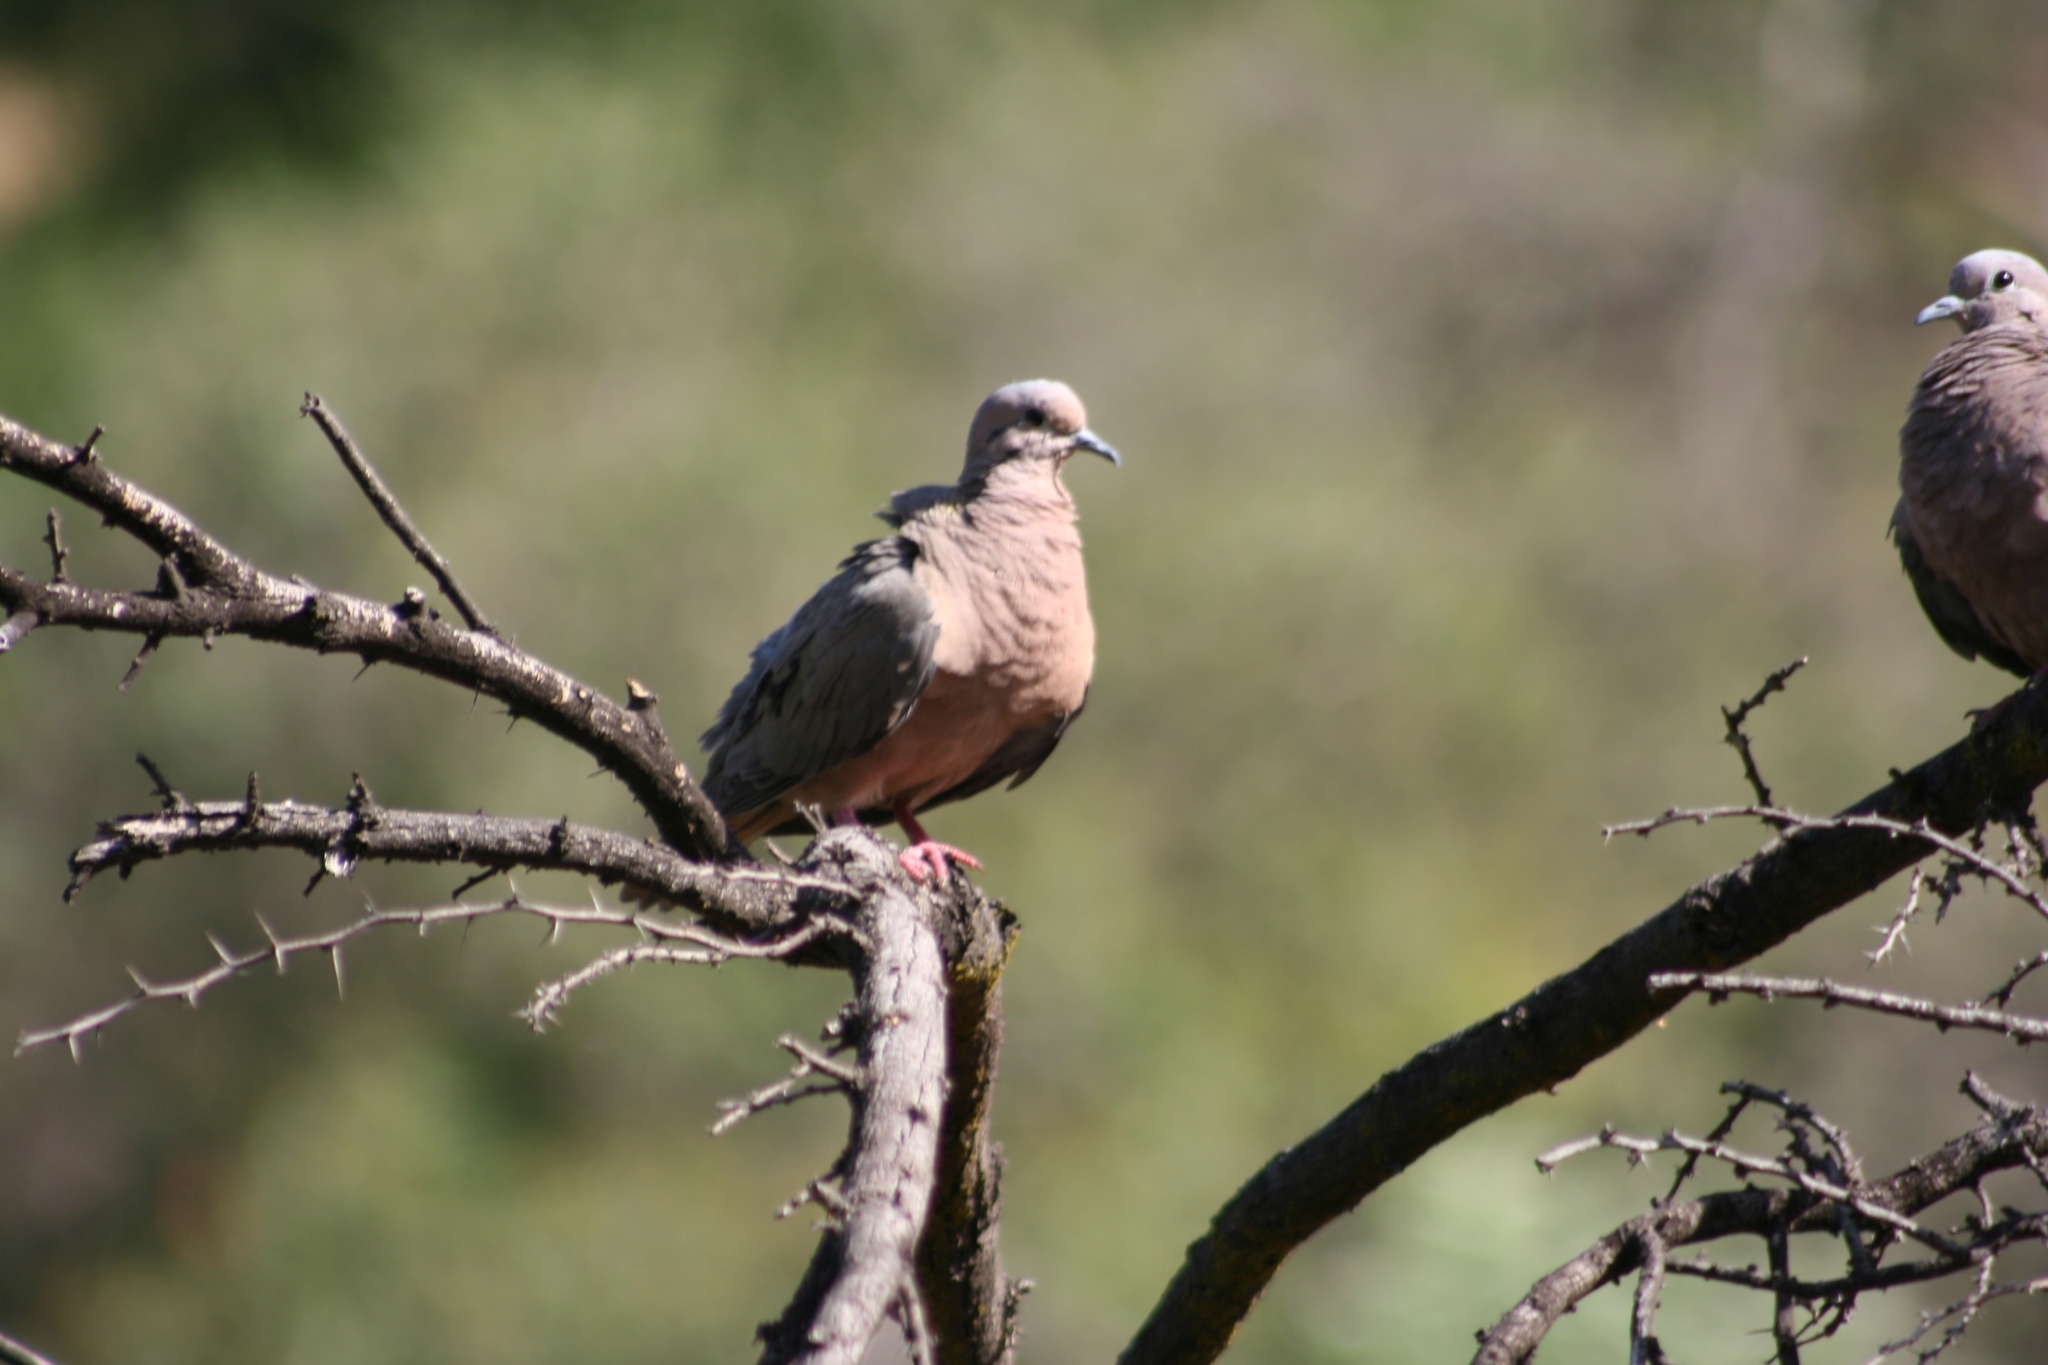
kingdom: Animalia
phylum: Chordata
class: Aves
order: Columbiformes
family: Columbidae
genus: Zenaida
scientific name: Zenaida auriculata
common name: Eared dove
